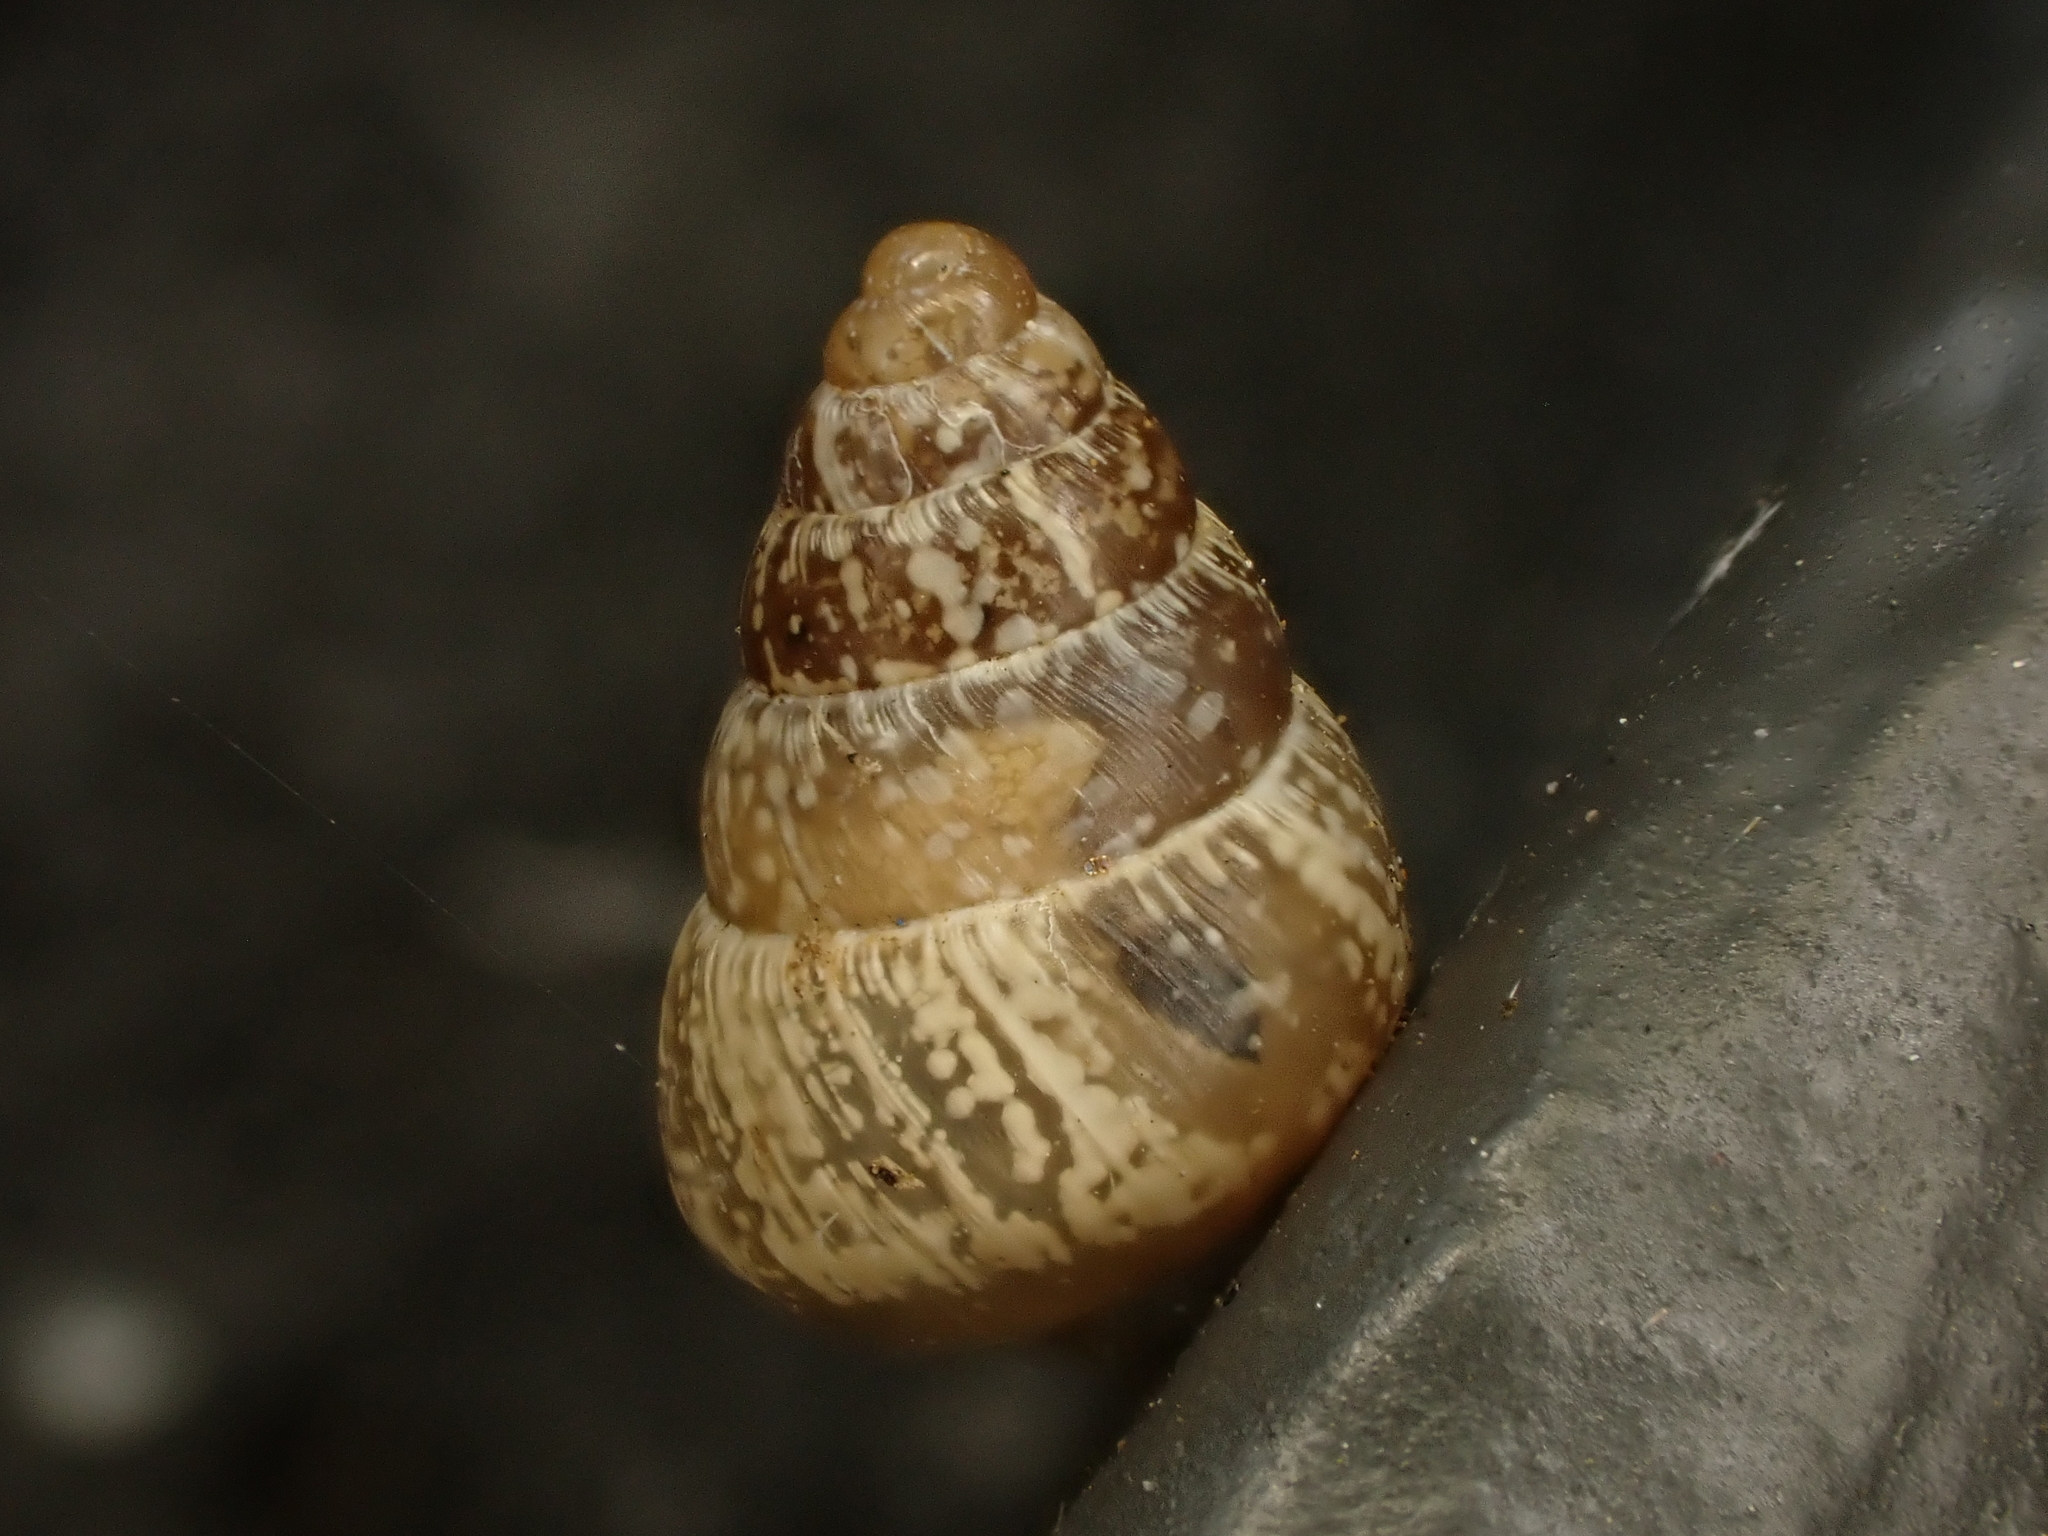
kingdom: Animalia
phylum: Mollusca
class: Gastropoda
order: Stylommatophora
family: Geomitridae
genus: Cochlicella
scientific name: Cochlicella barbara
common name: Potbellied helicellid
